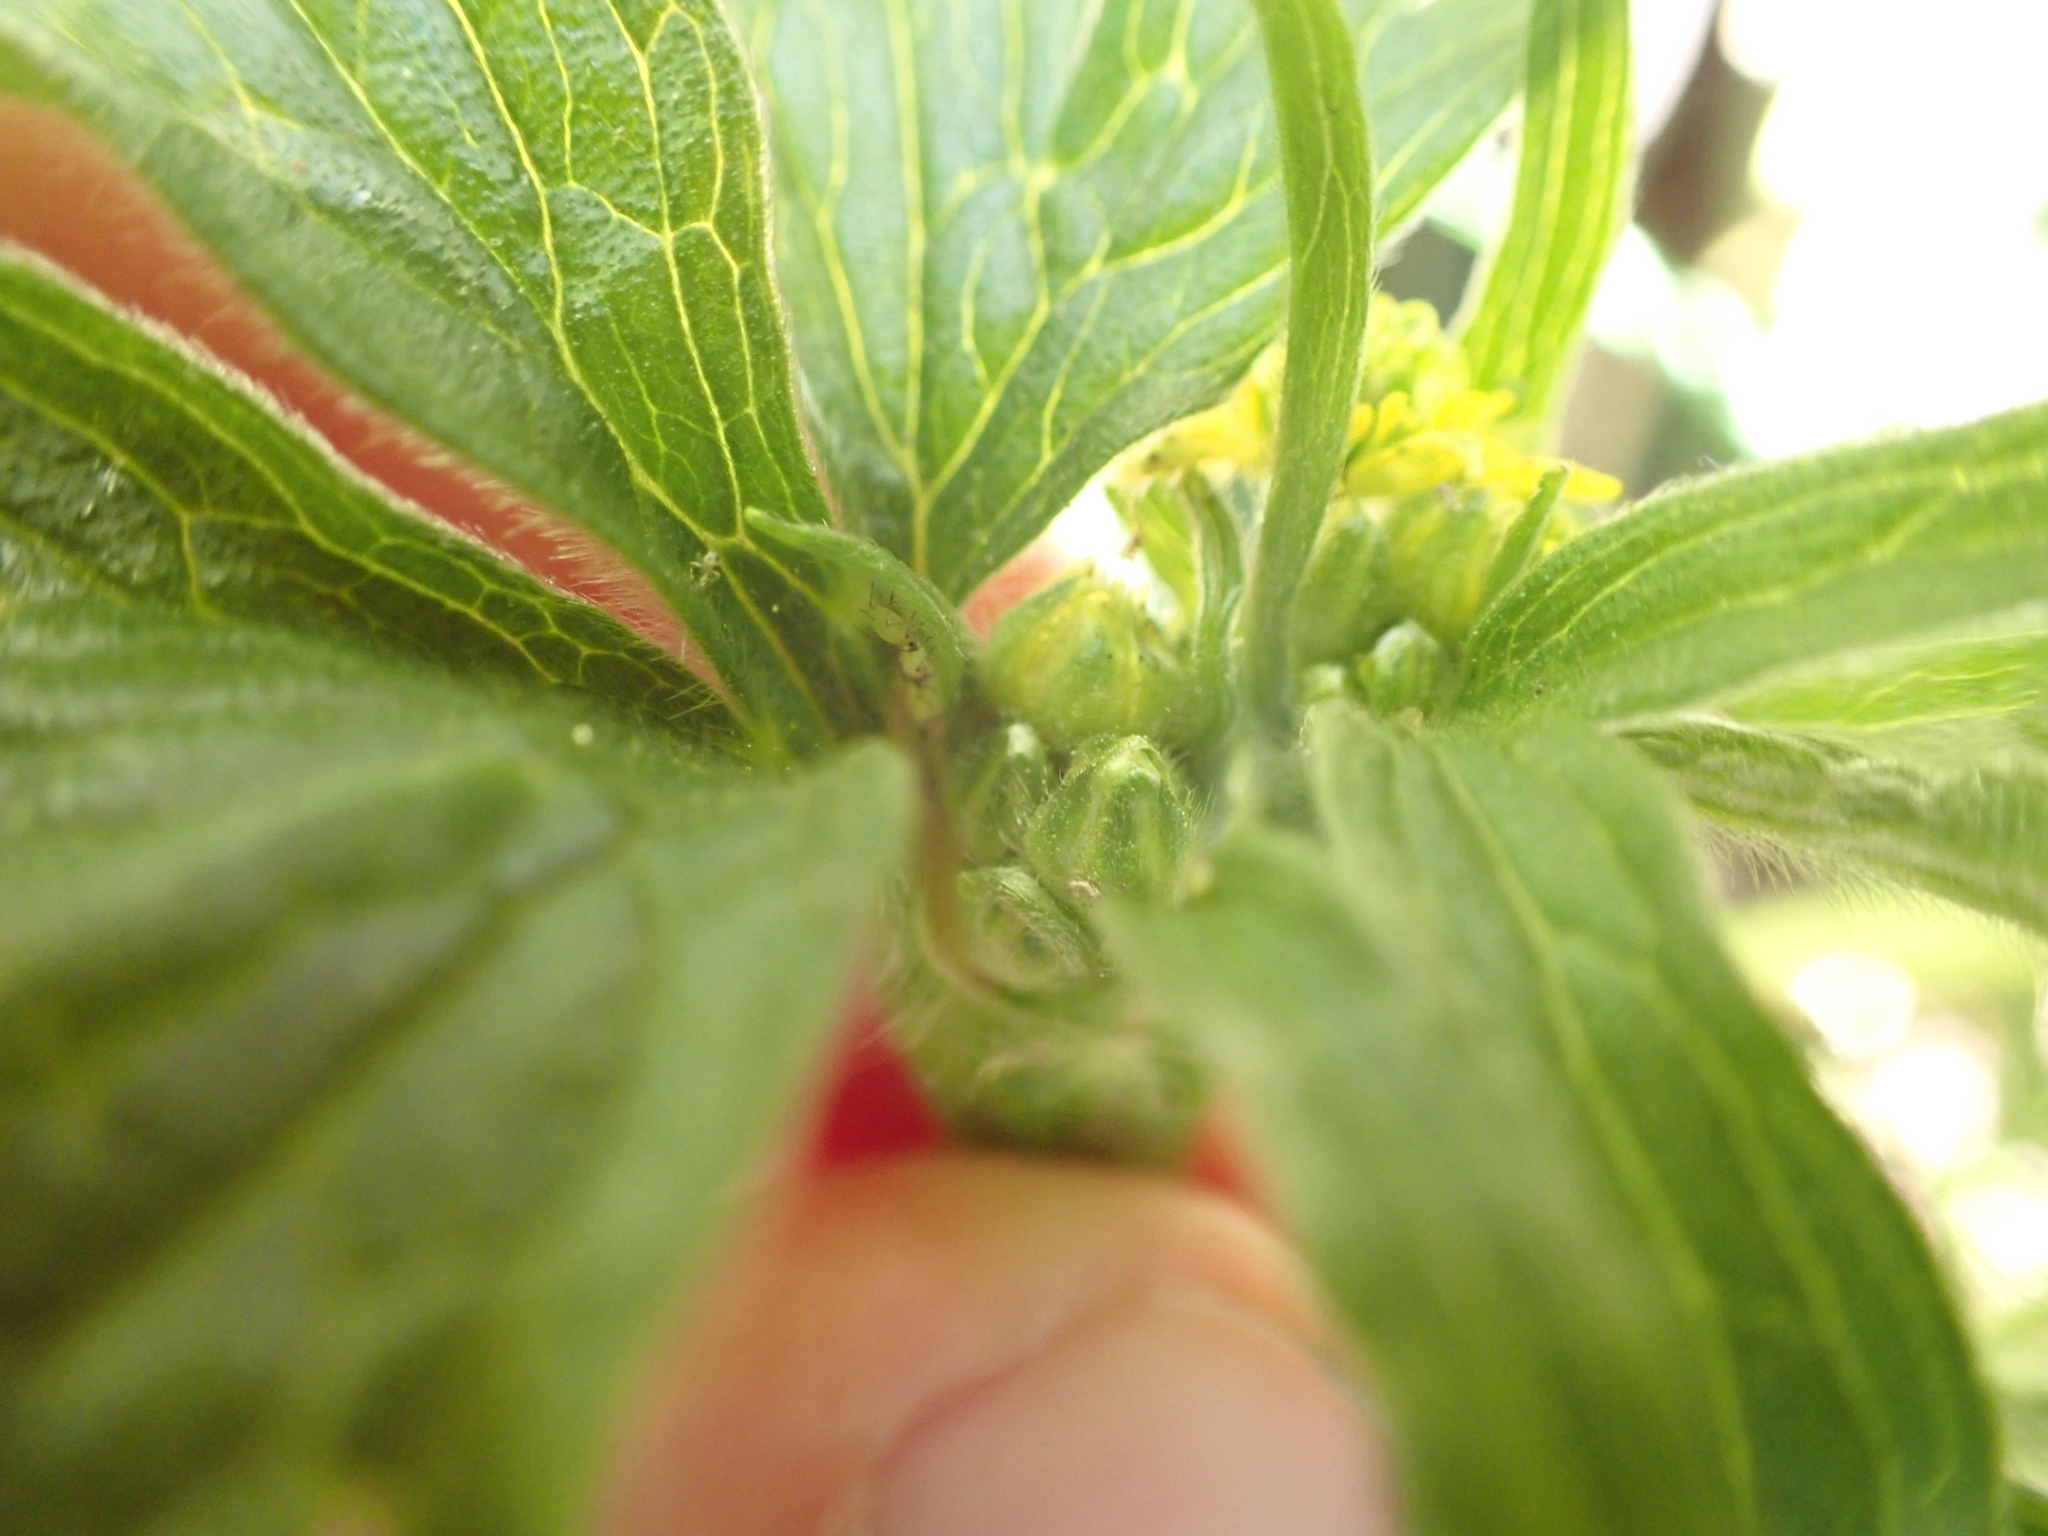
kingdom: Plantae
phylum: Tracheophyta
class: Magnoliopsida
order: Ranunculales
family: Ranunculaceae
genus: Trautvetteria
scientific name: Trautvetteria carolinensis
